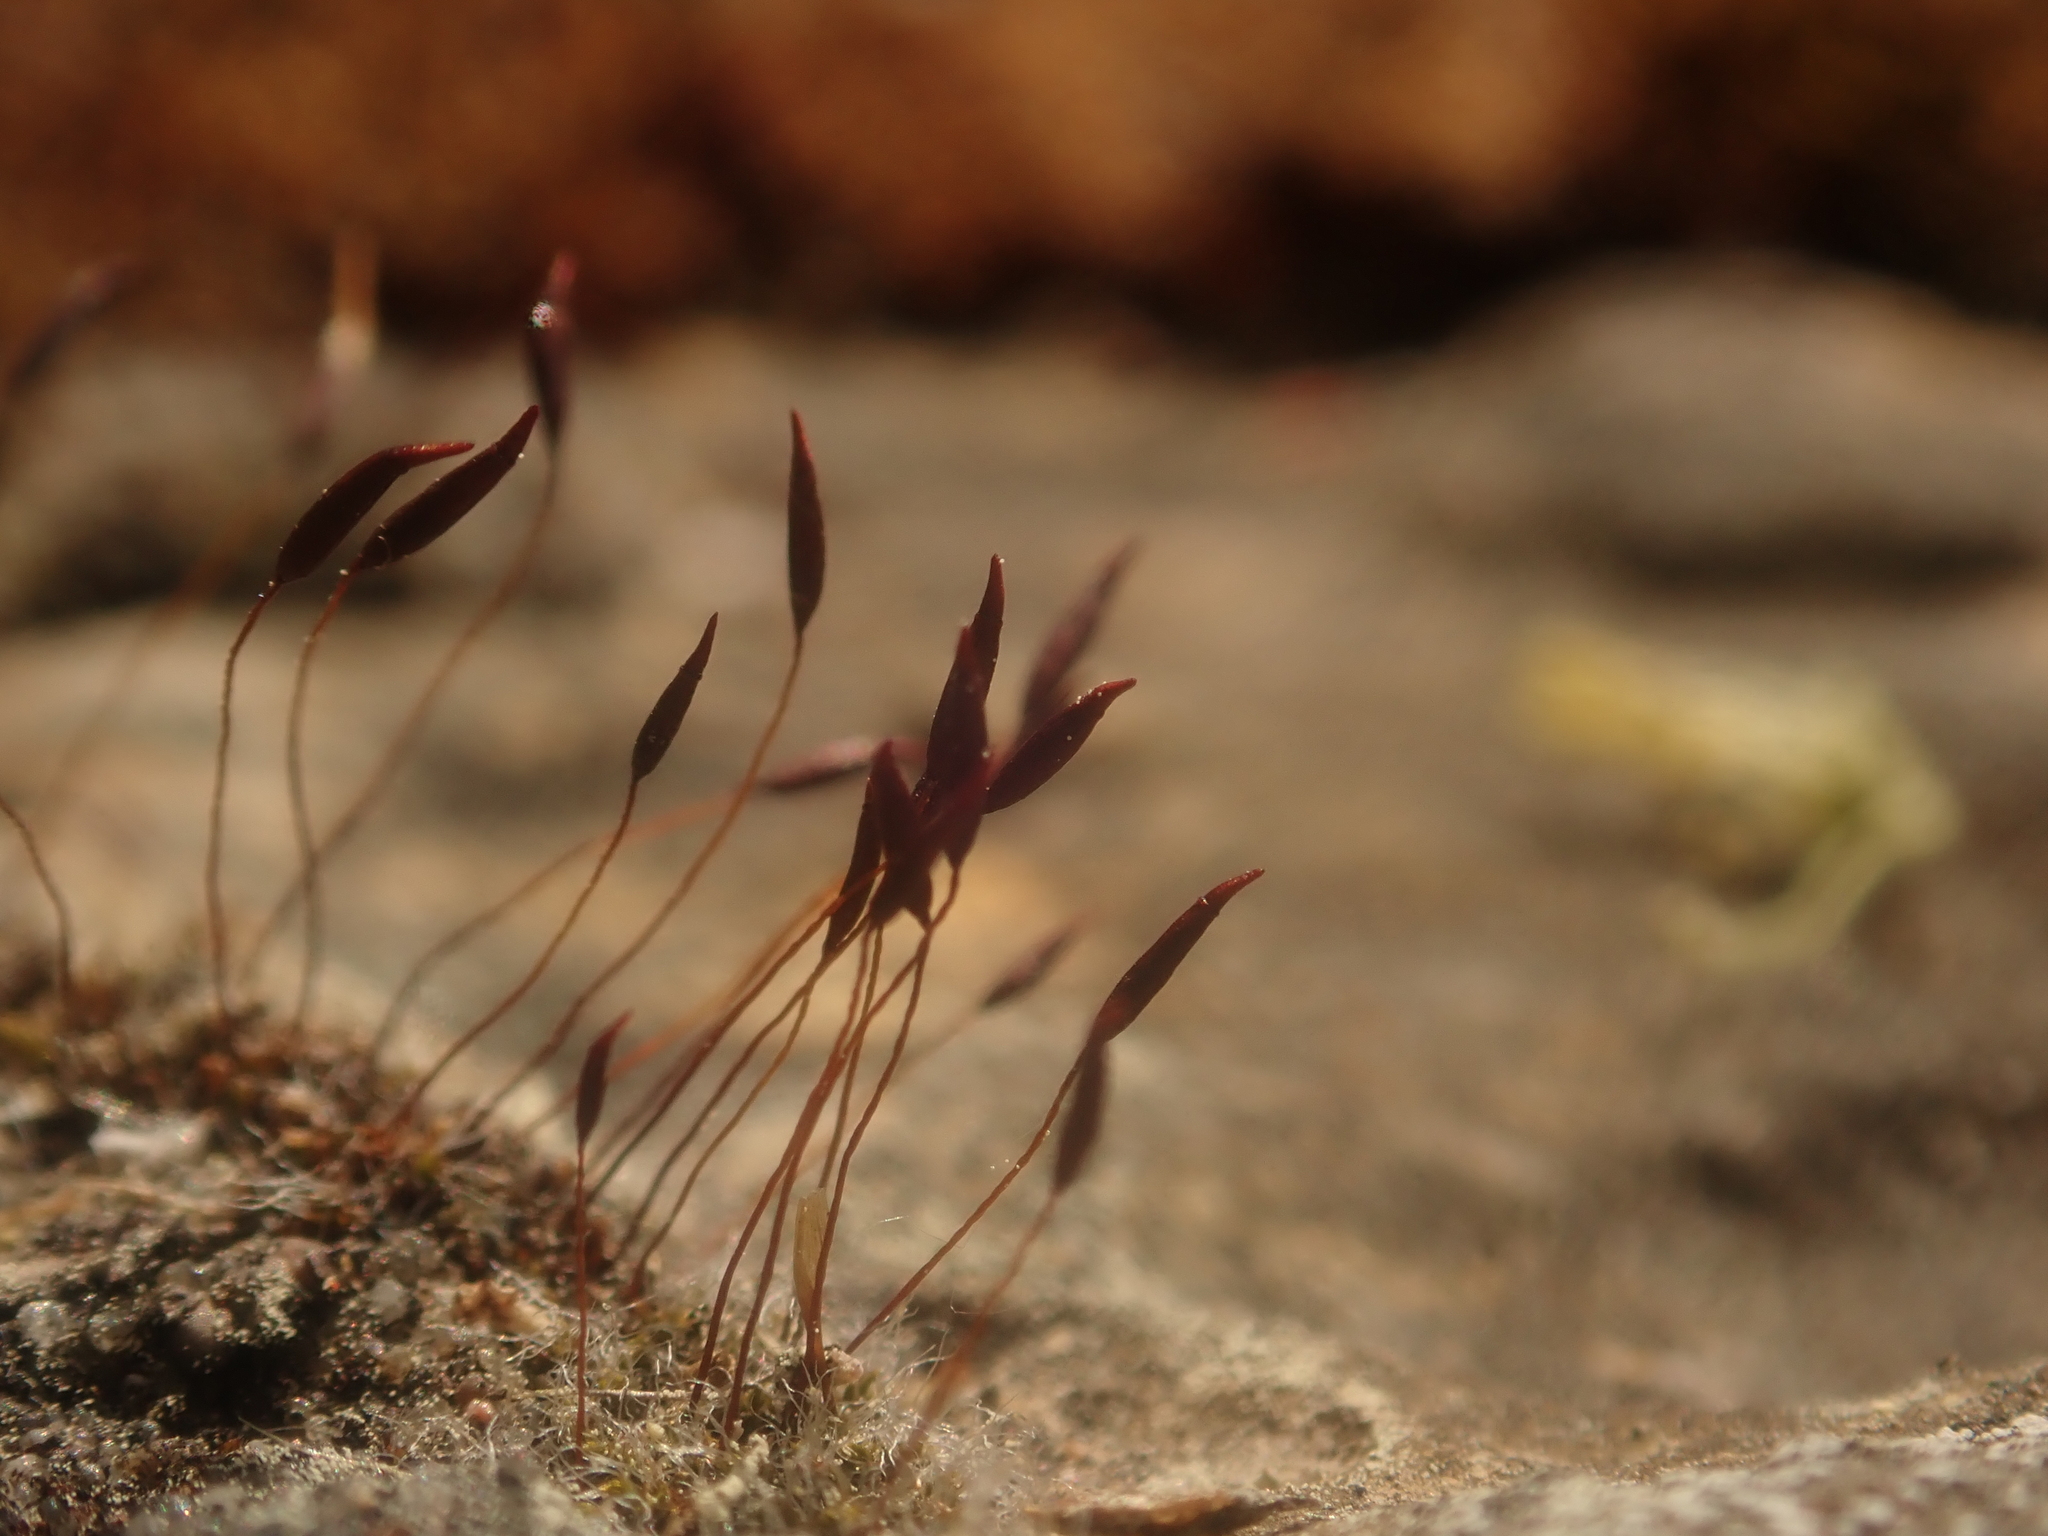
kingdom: Plantae
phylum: Bryophyta
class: Bryopsida
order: Pottiales
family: Pottiaceae
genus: Tortula
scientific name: Tortula muralis
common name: Wall screw-moss
